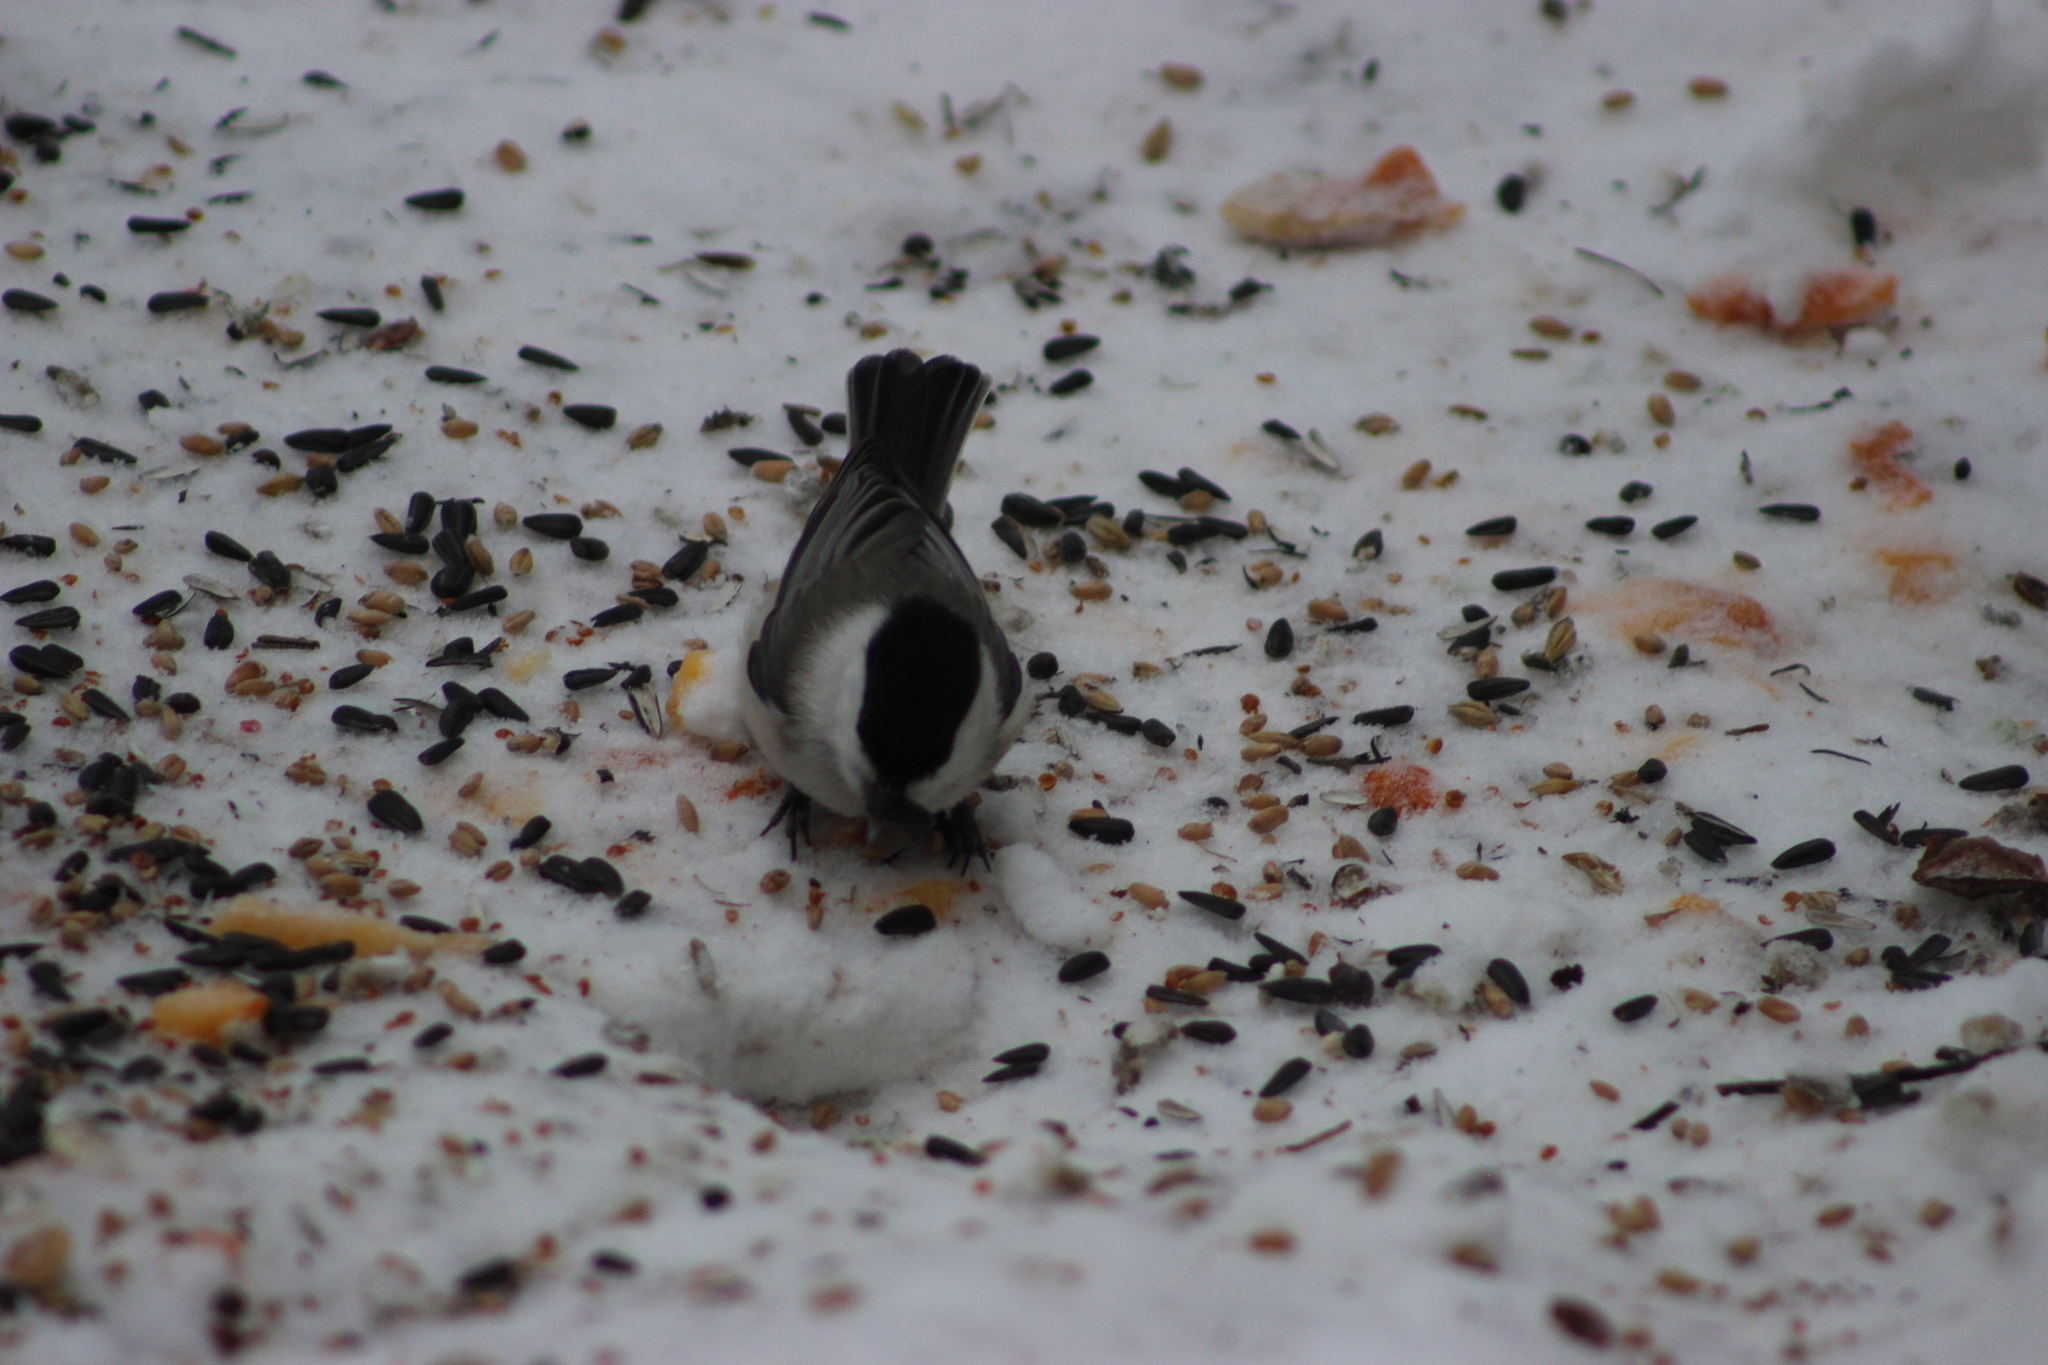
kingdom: Animalia
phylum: Chordata
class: Aves
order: Passeriformes
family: Paridae
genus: Poecile
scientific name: Poecile montanus
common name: Willow tit
